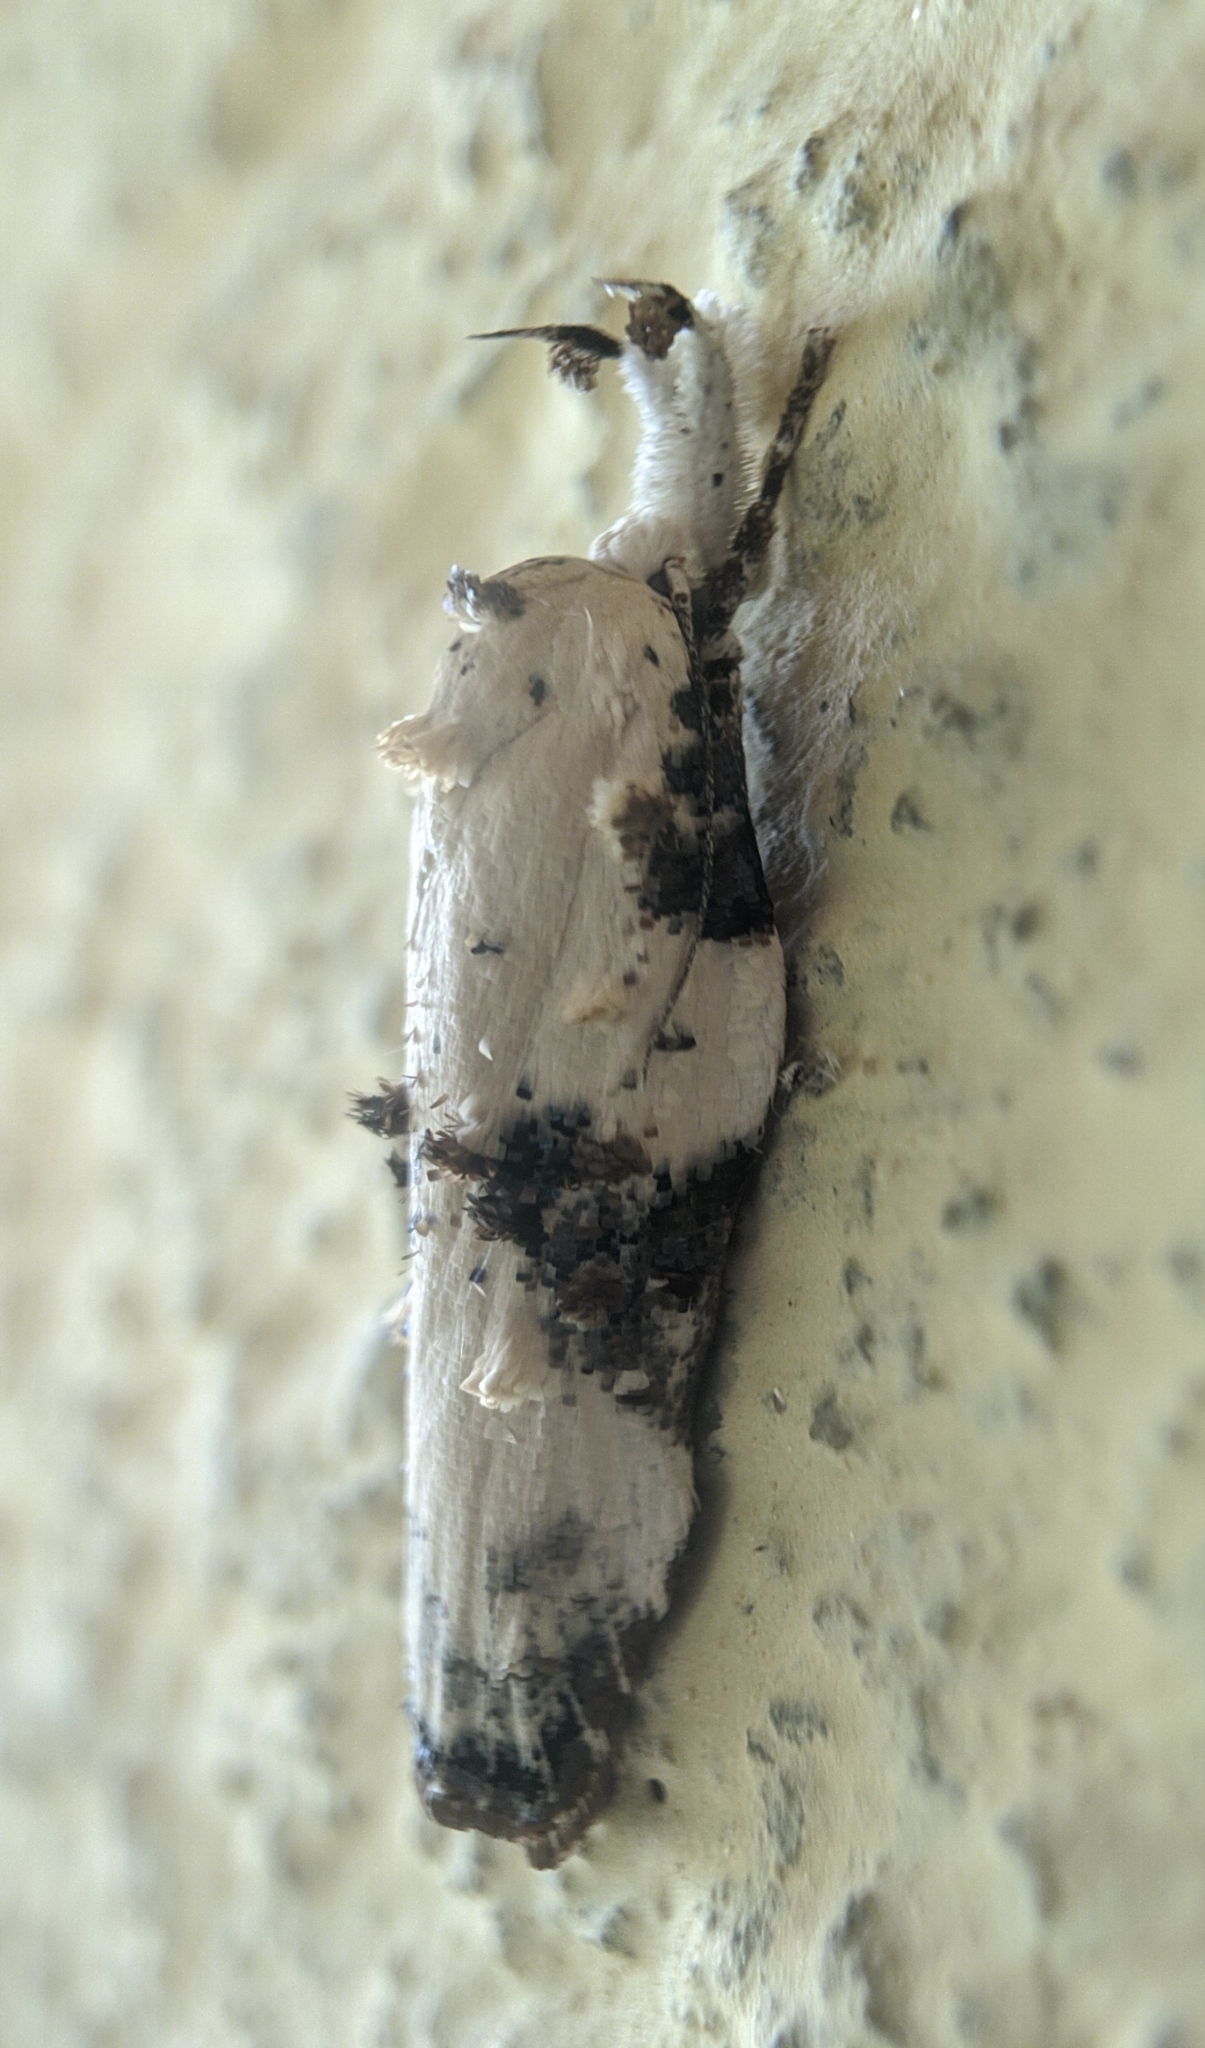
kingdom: Animalia
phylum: Arthropoda
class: Insecta
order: Lepidoptera
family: Depressariidae
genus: Tonica
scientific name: Tonica niviferana
